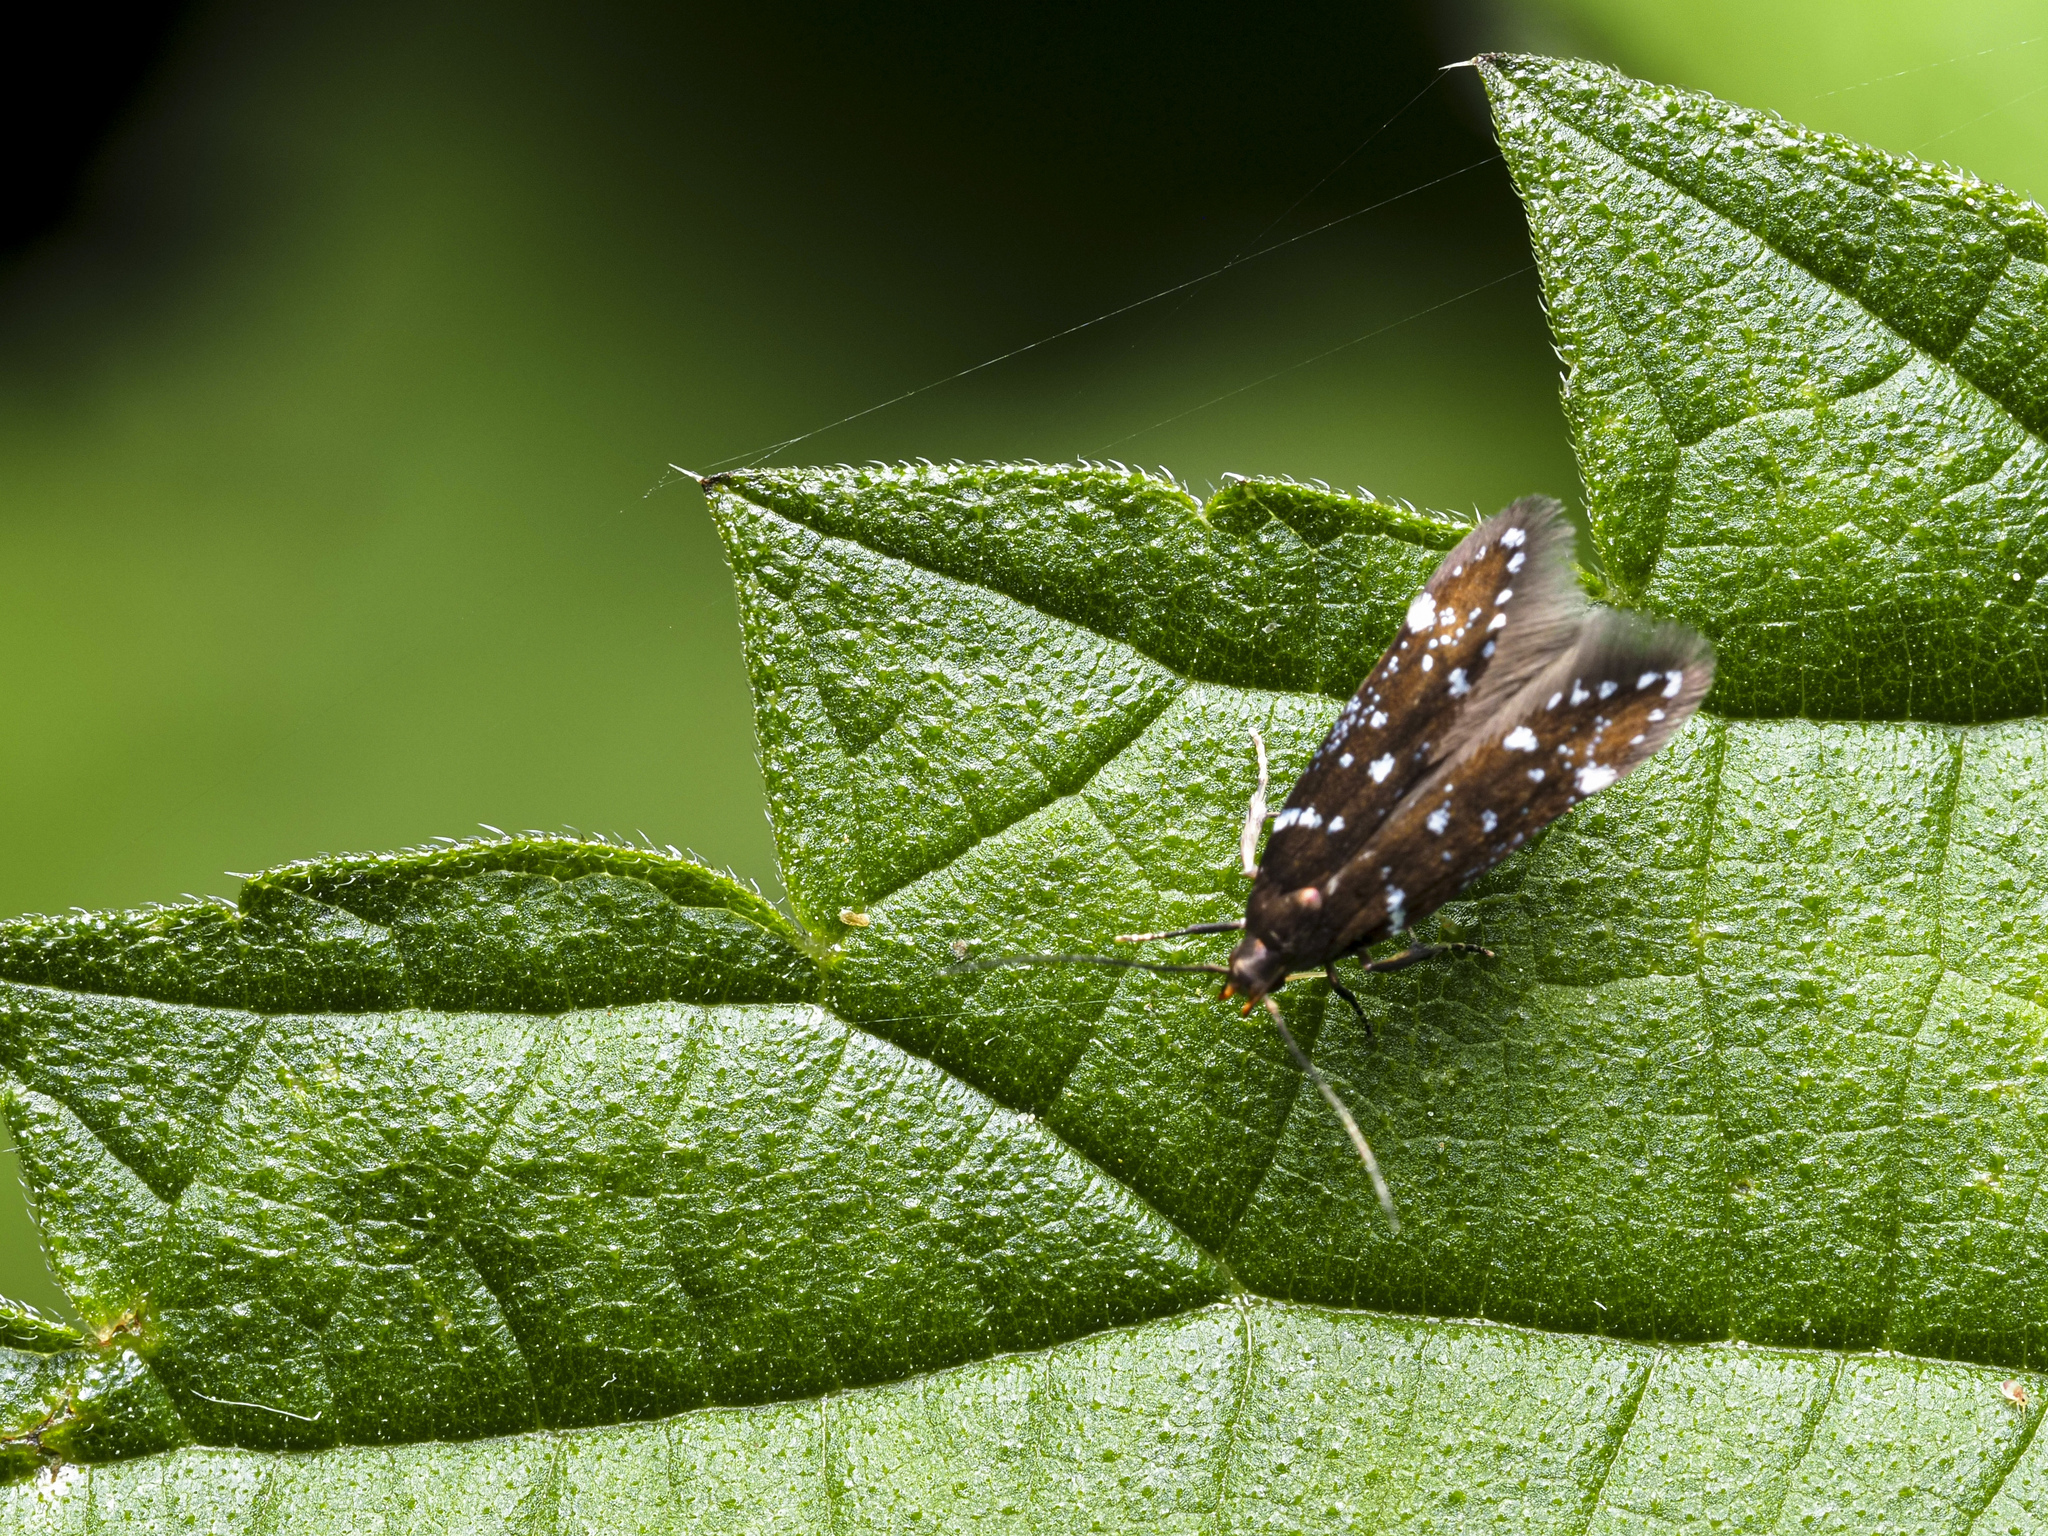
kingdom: Animalia
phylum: Arthropoda
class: Insecta
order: Lepidoptera
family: Gelechiidae
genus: Argolamprotes
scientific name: Argolamprotes micella
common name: Bright neb
